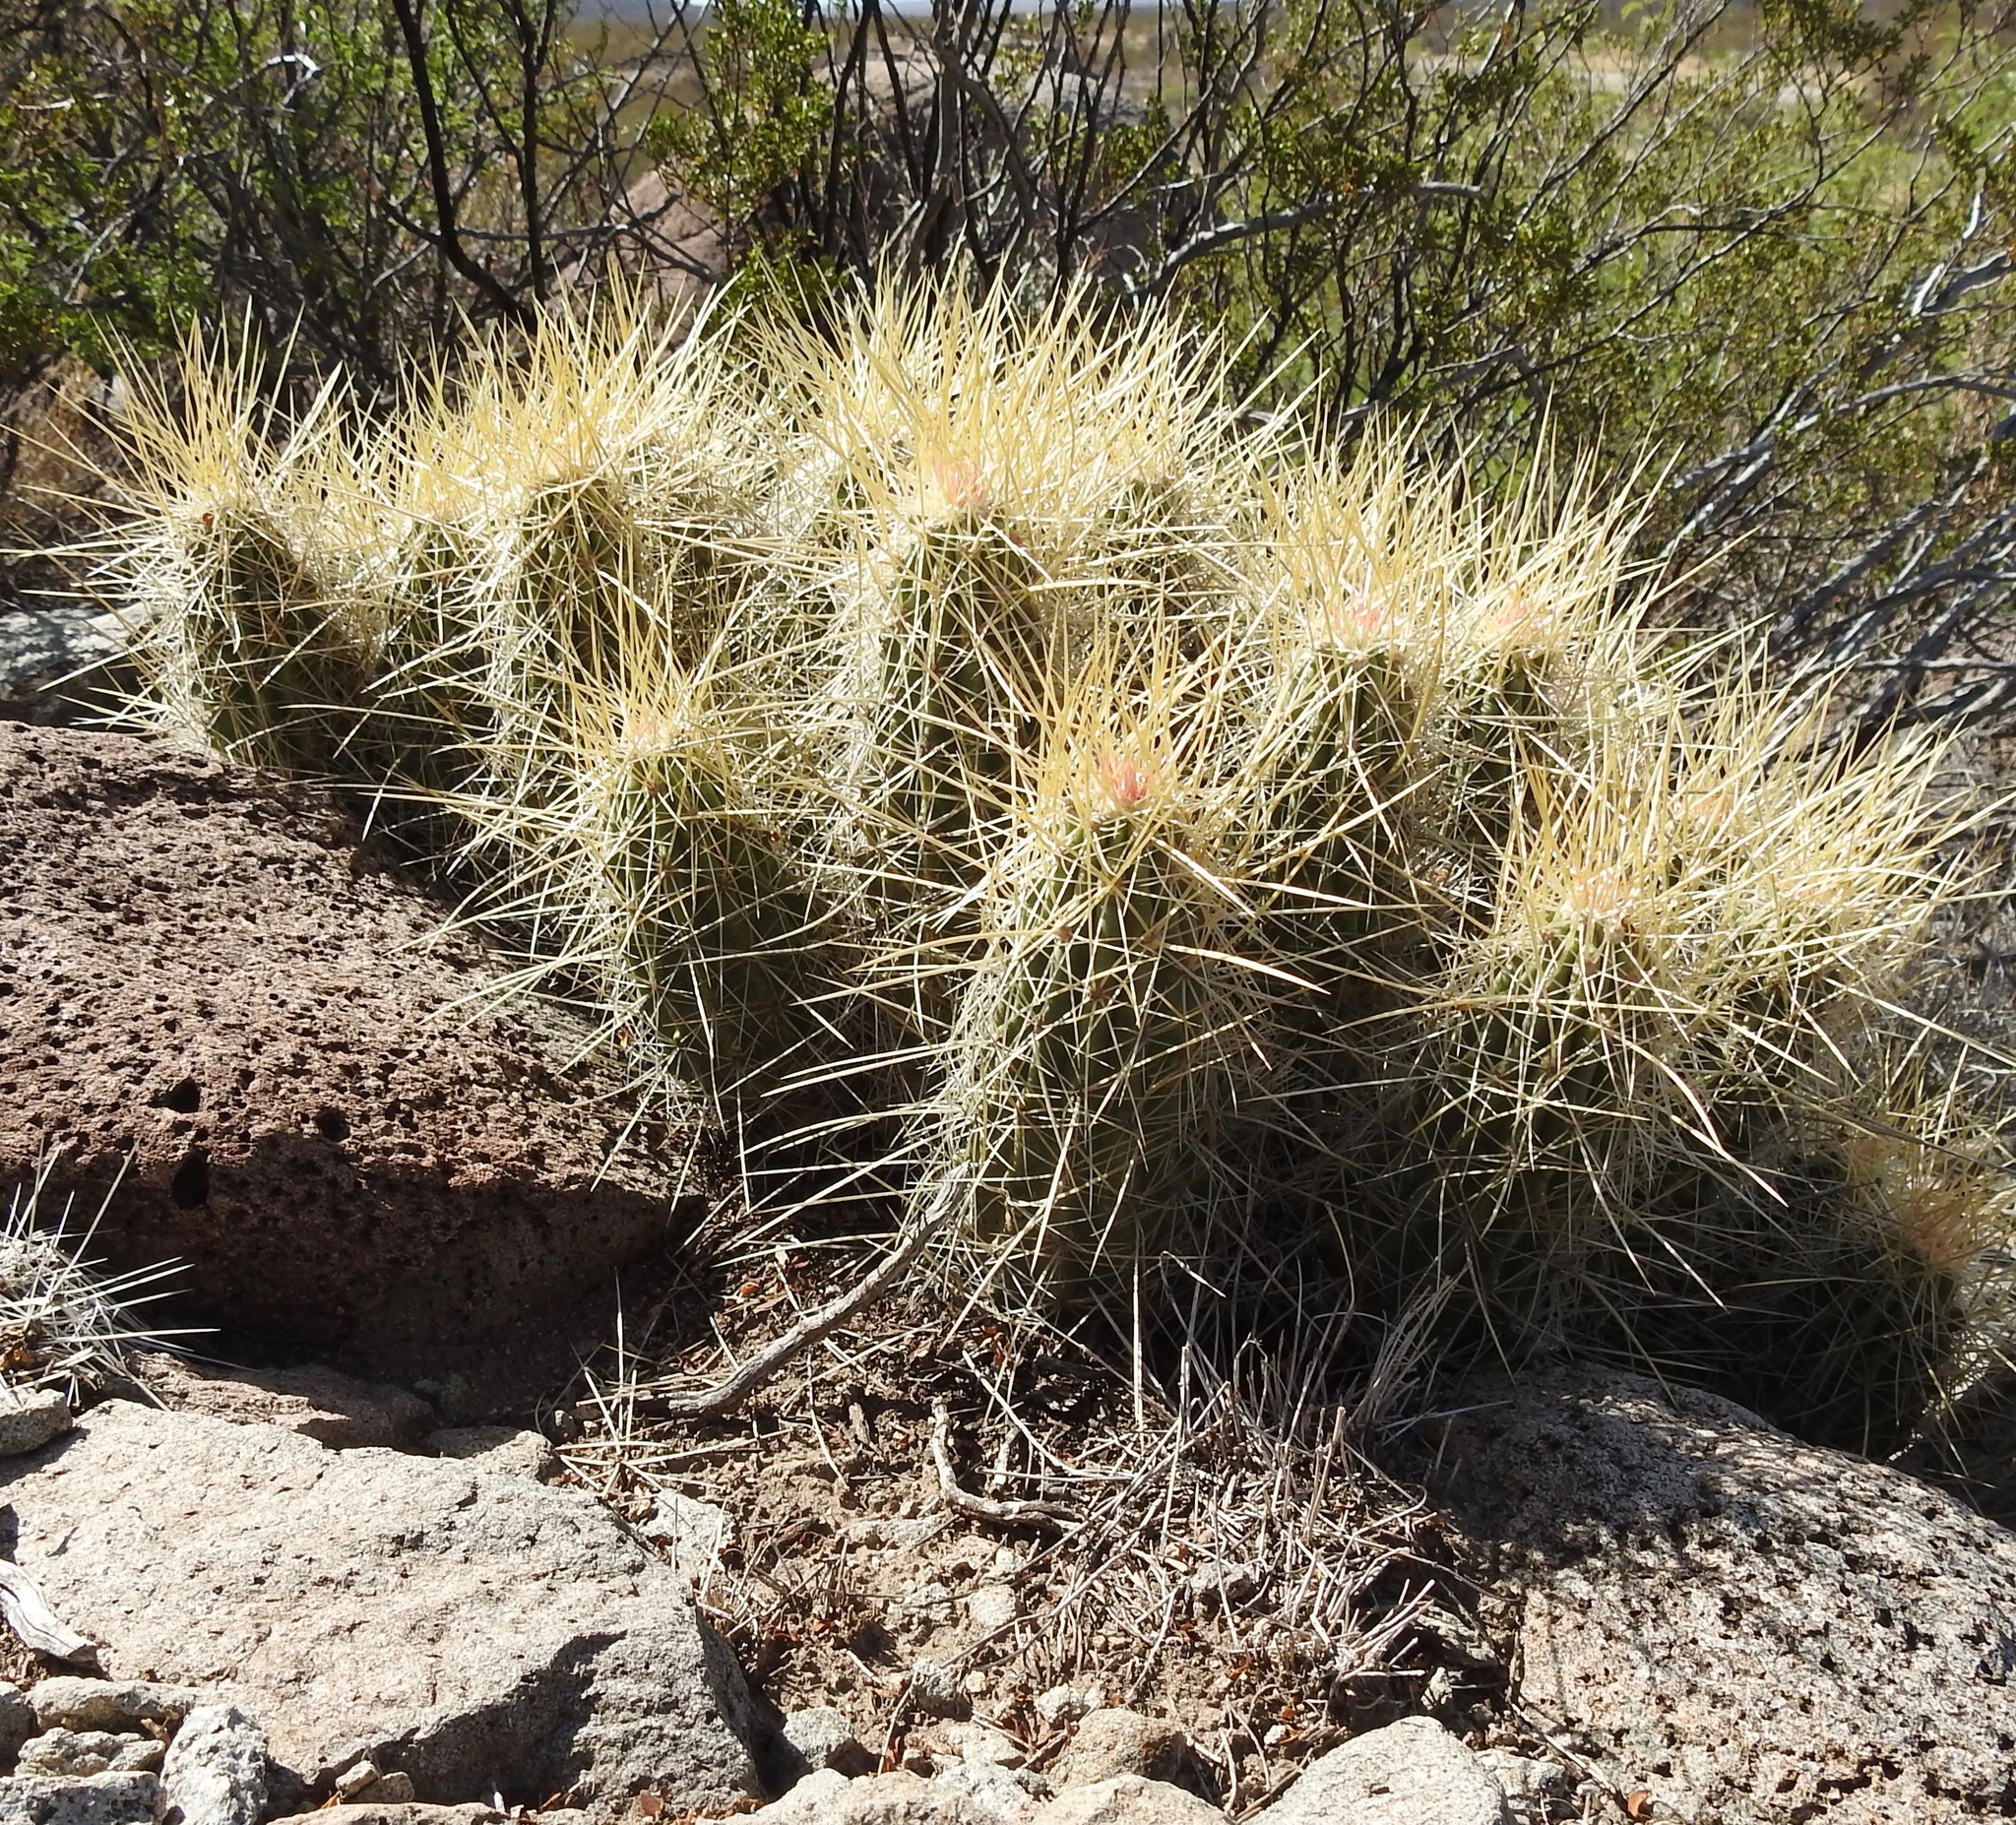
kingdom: Plantae
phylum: Tracheophyta
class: Magnoliopsida
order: Caryophyllales
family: Cactaceae
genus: Echinocereus
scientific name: Echinocereus stramineus
